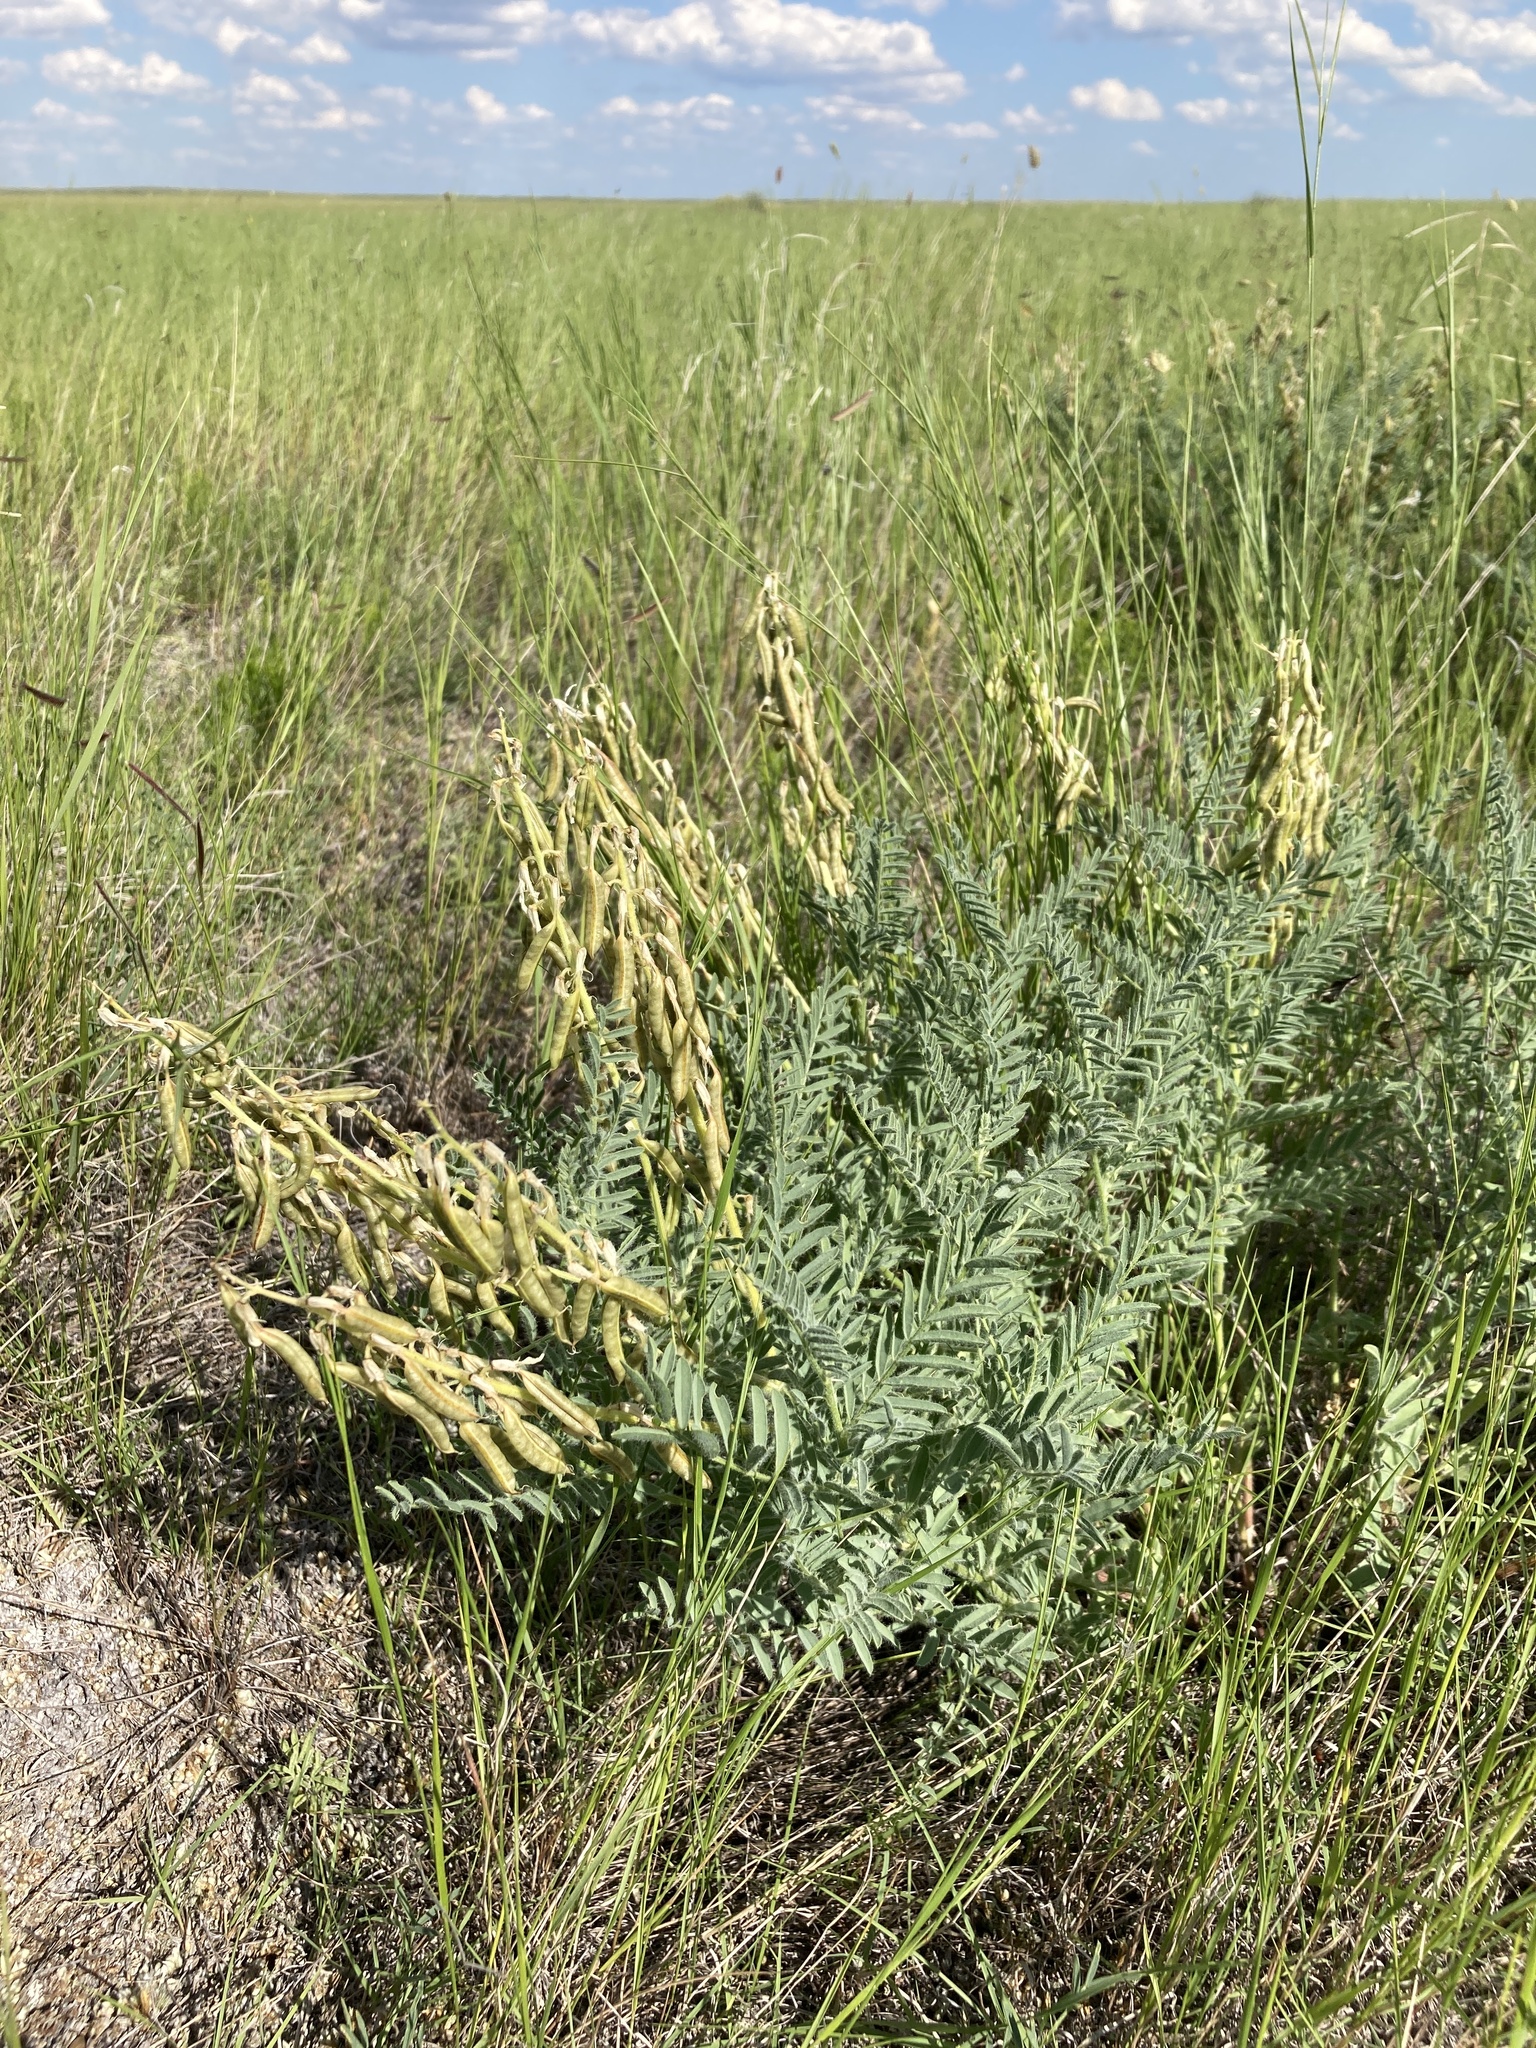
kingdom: Plantae
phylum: Tracheophyta
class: Magnoliopsida
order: Fabales
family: Fabaceae
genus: Astragalus
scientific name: Astragalus drummondii
